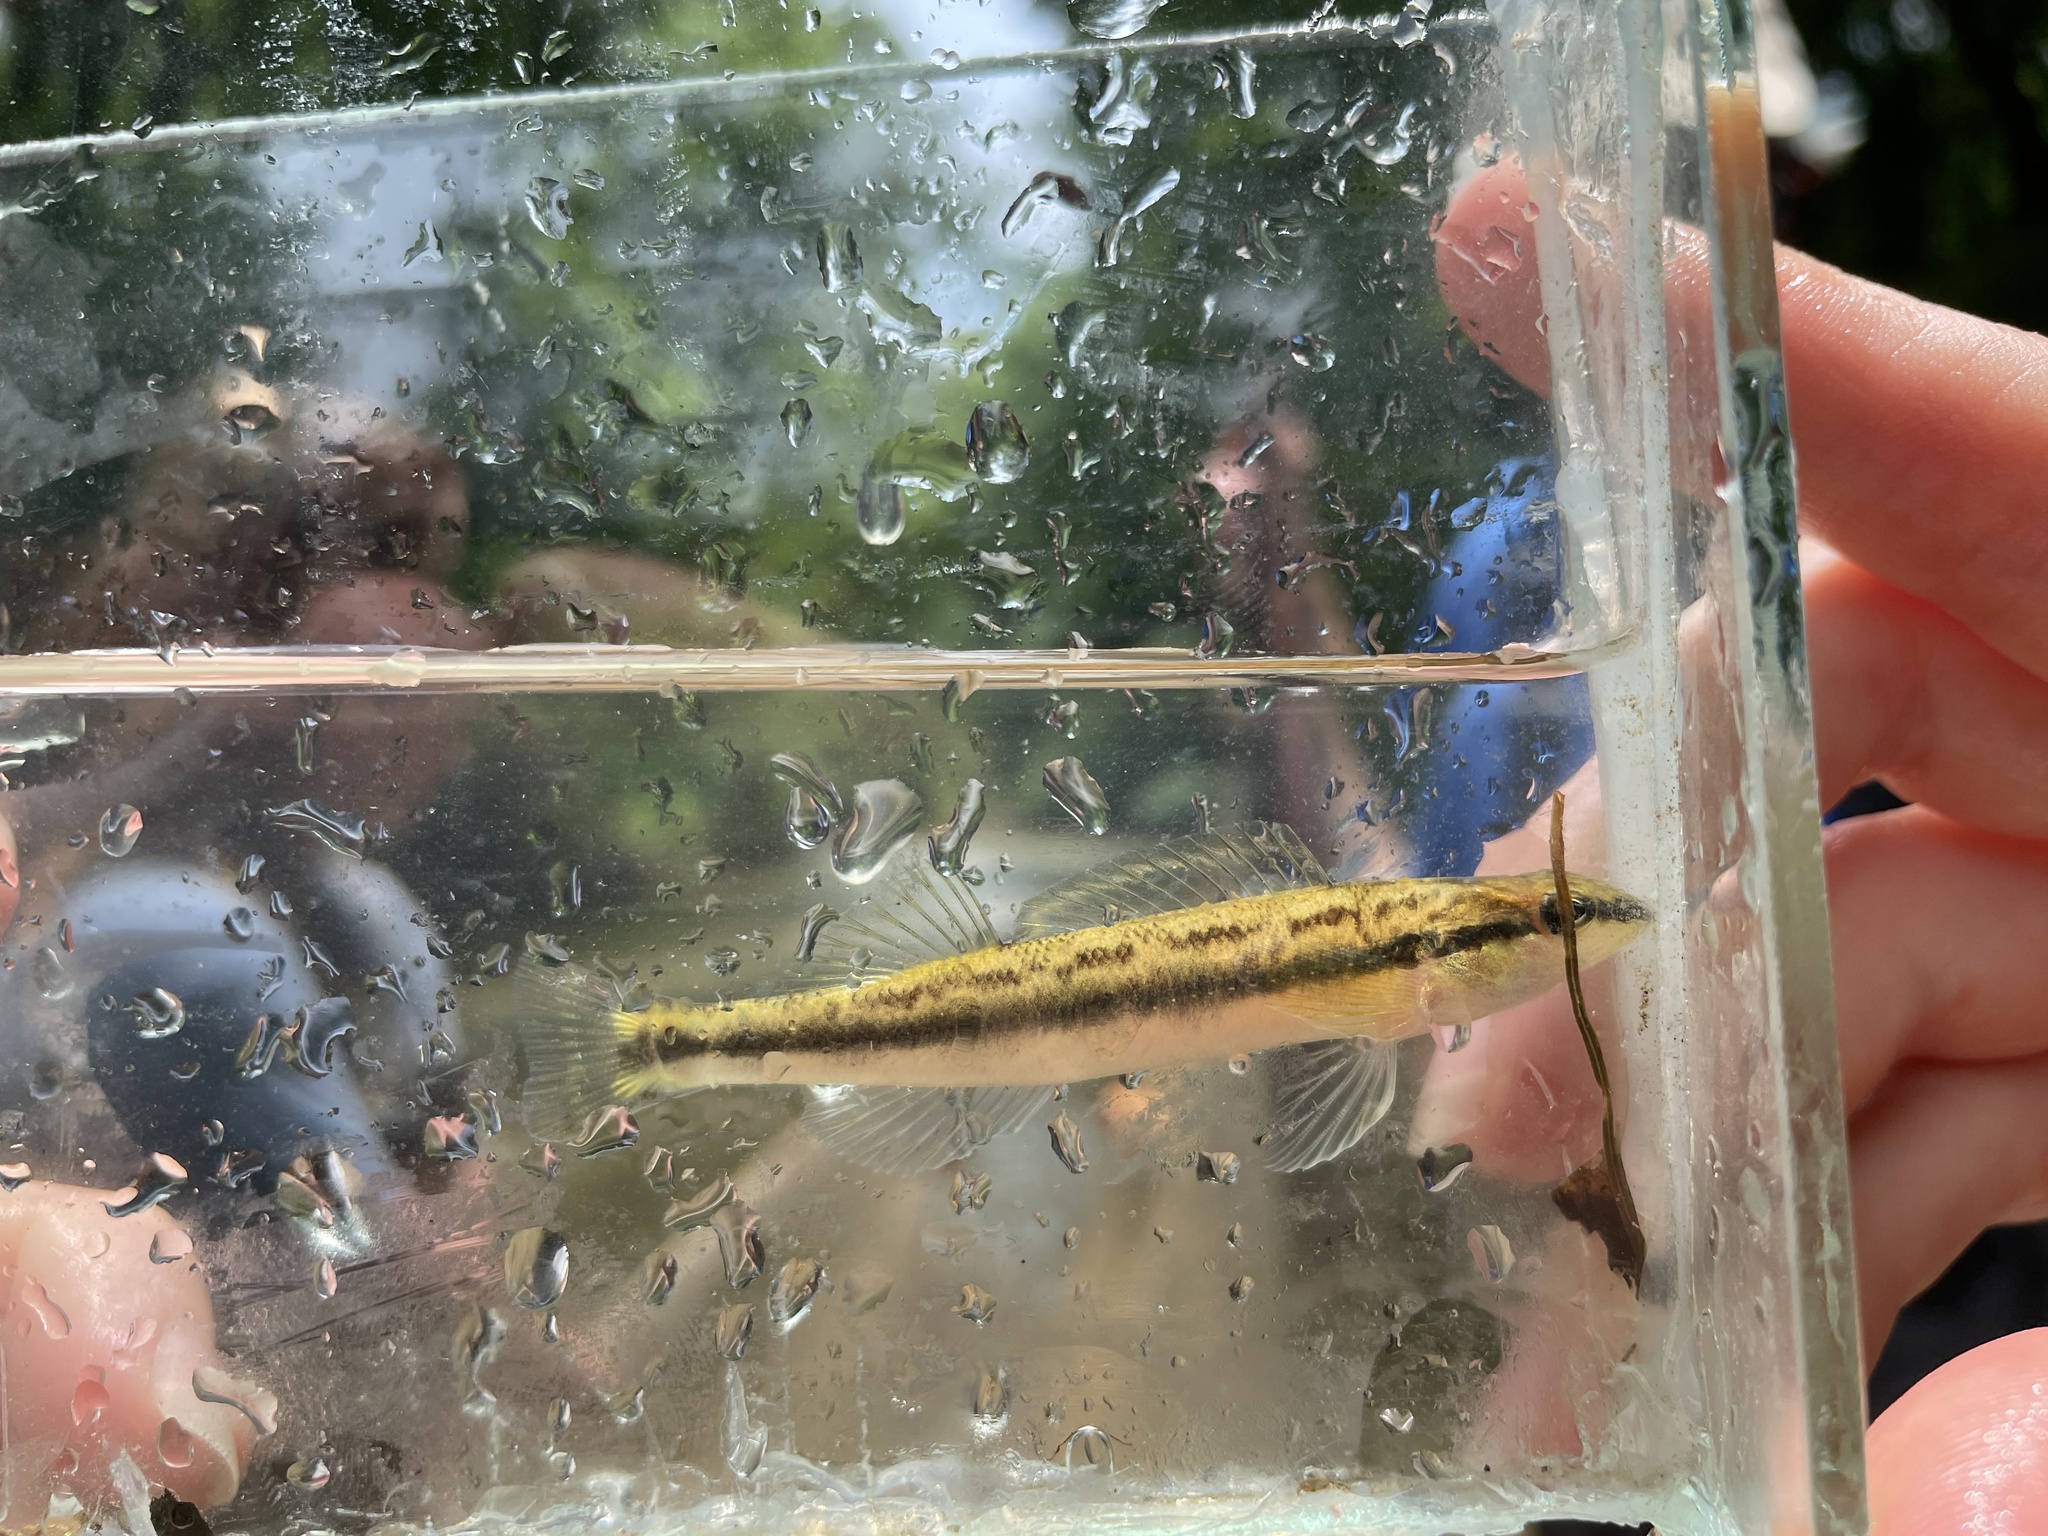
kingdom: Animalia
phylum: Chordata
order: Perciformes
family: Percidae
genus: Percina
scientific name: Percina aurolineata
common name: Goldline darter
